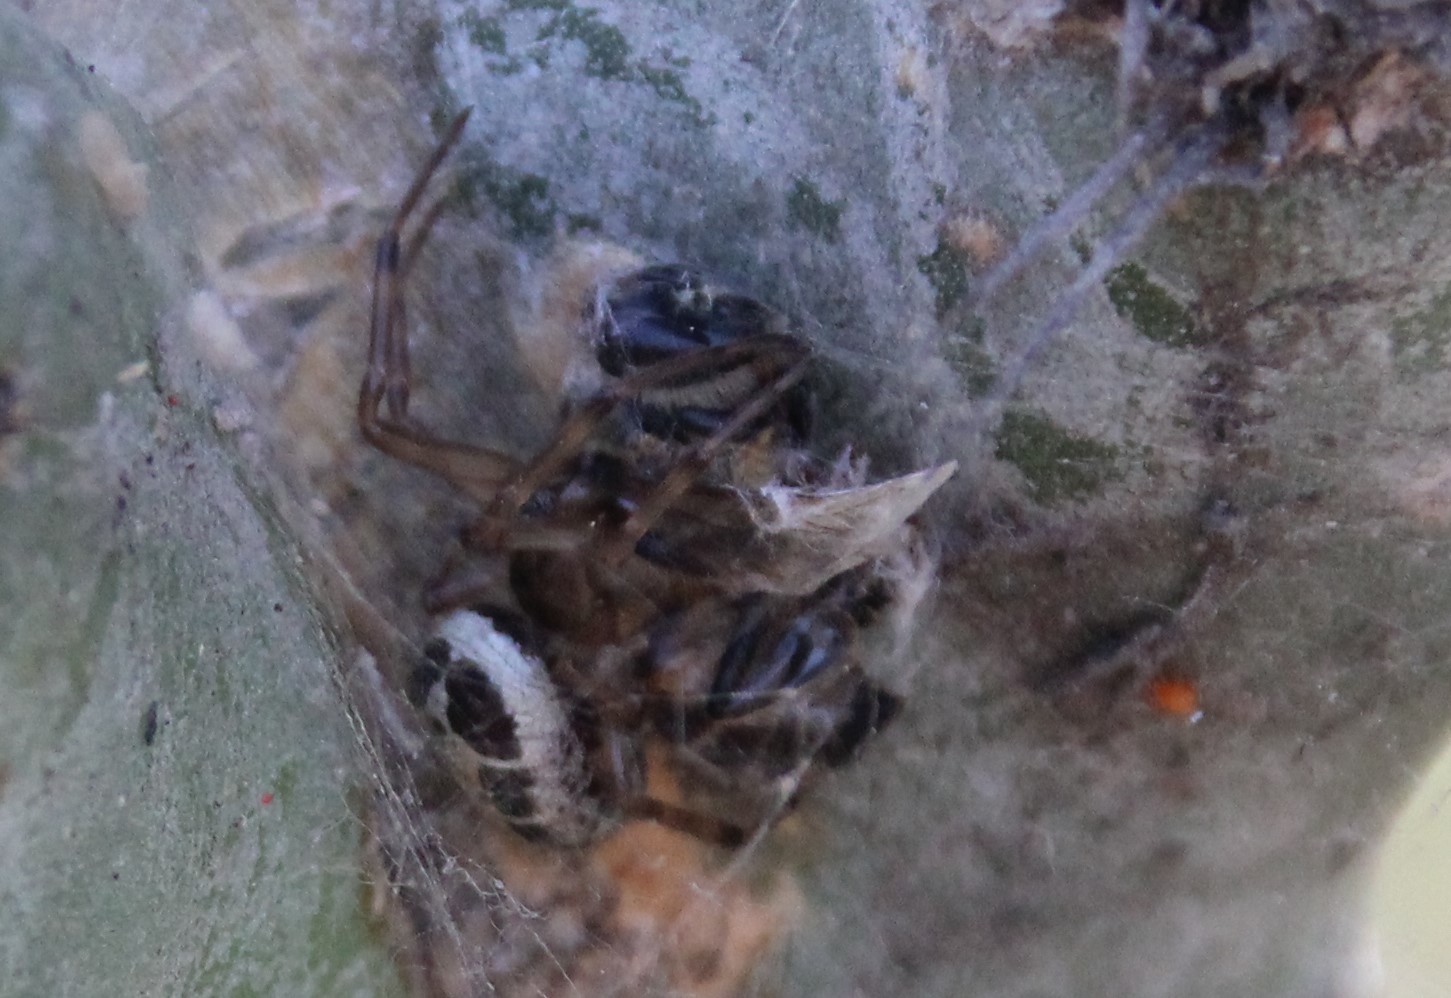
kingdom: Animalia
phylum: Arthropoda
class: Arachnida
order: Araneae
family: Theridiidae
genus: Steatoda
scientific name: Steatoda nobilis
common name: Cobweb weaver
